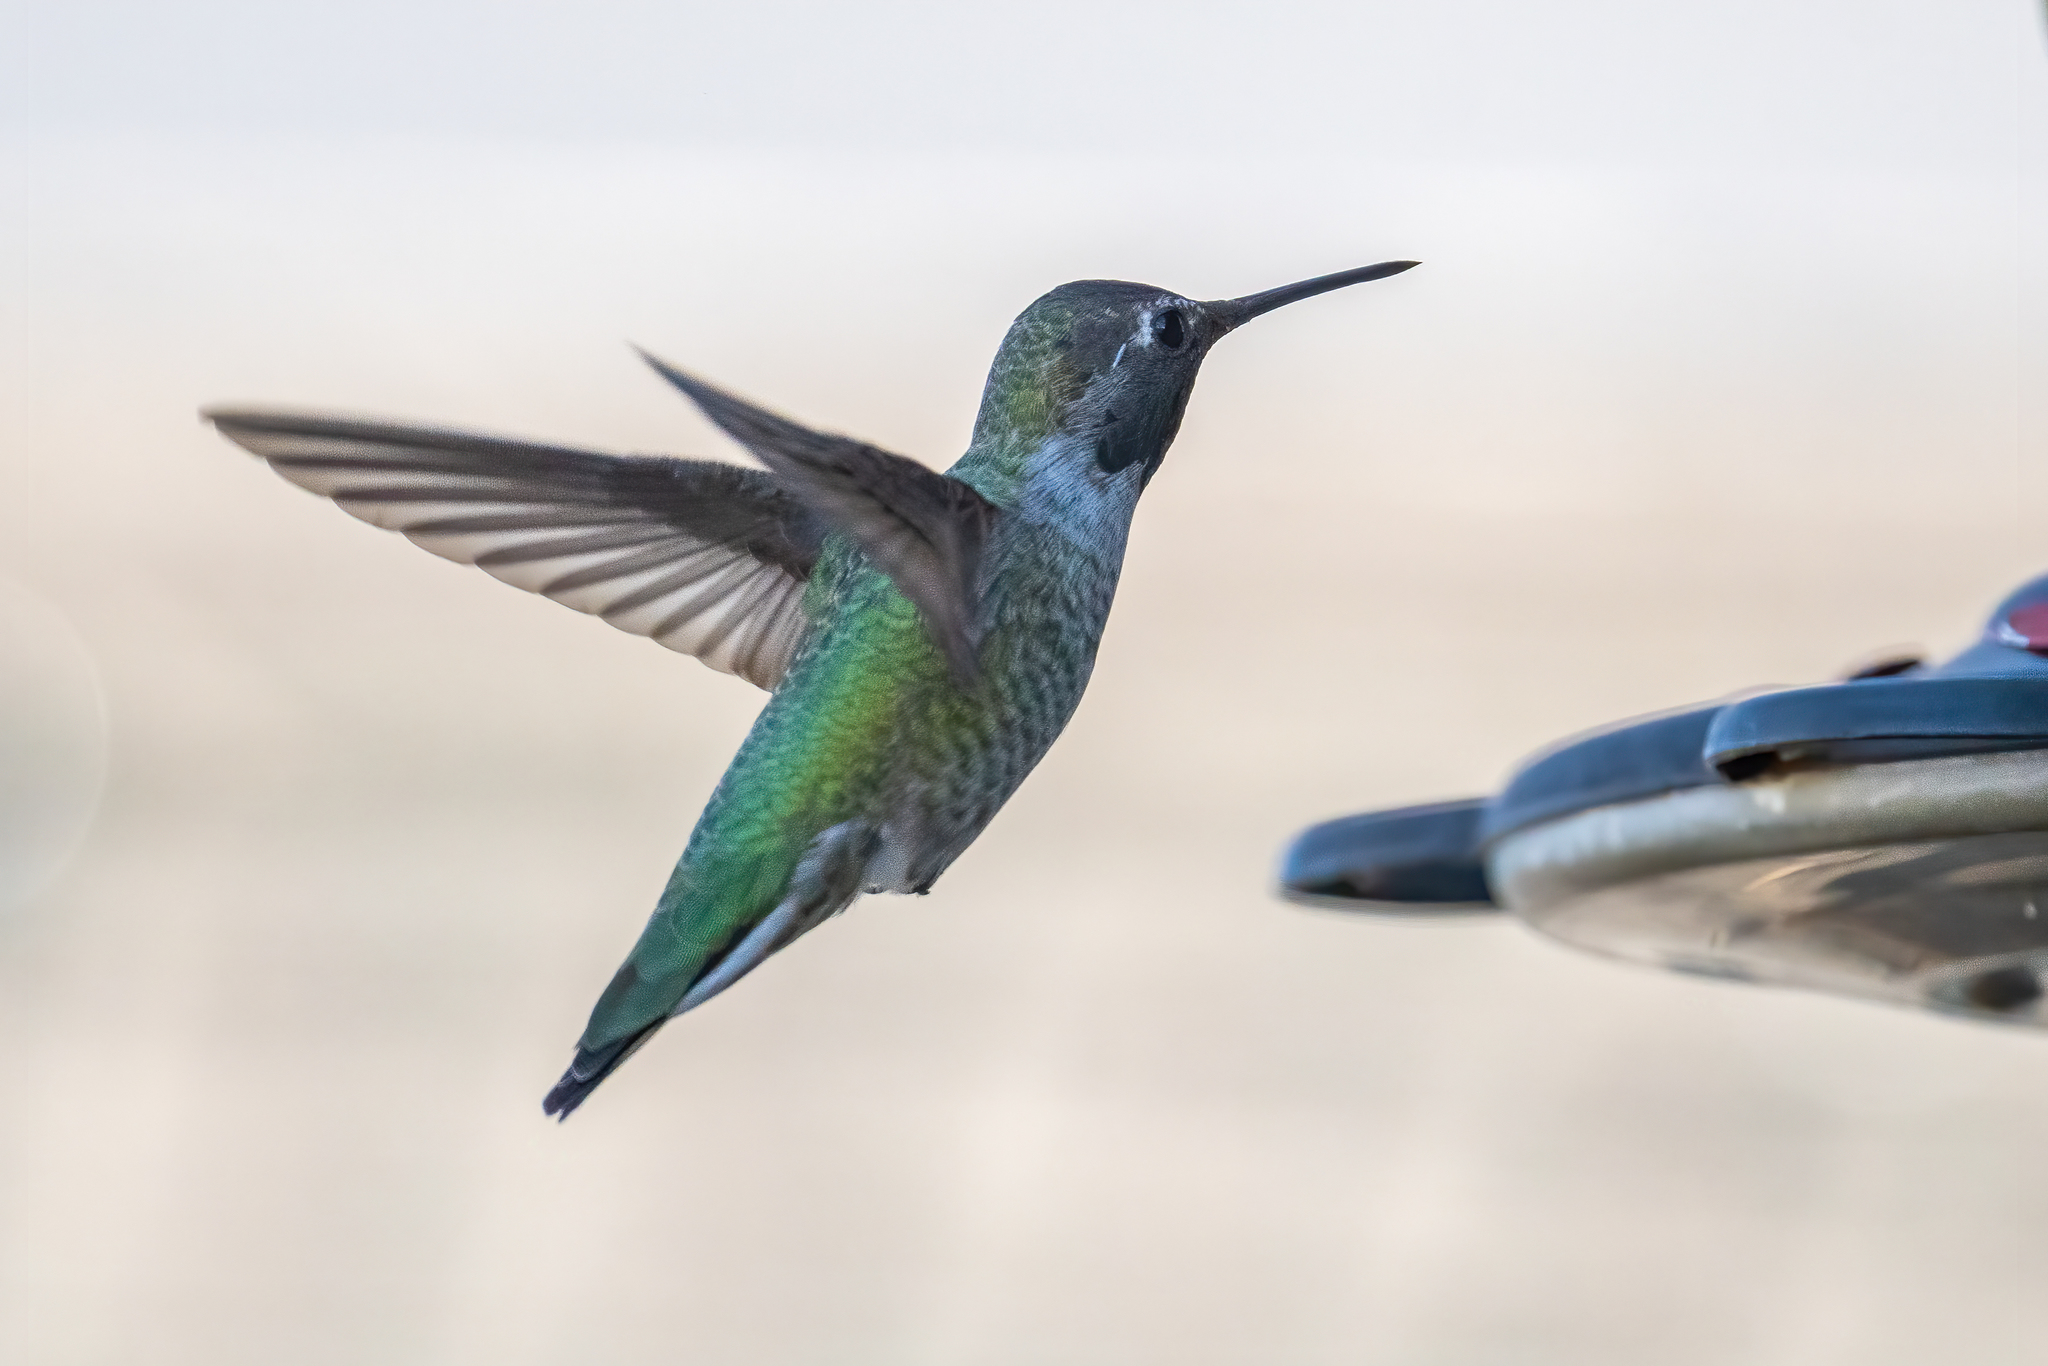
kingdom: Animalia
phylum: Chordata
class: Aves
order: Apodiformes
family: Trochilidae
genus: Calypte
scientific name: Calypte anna
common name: Anna's hummingbird
